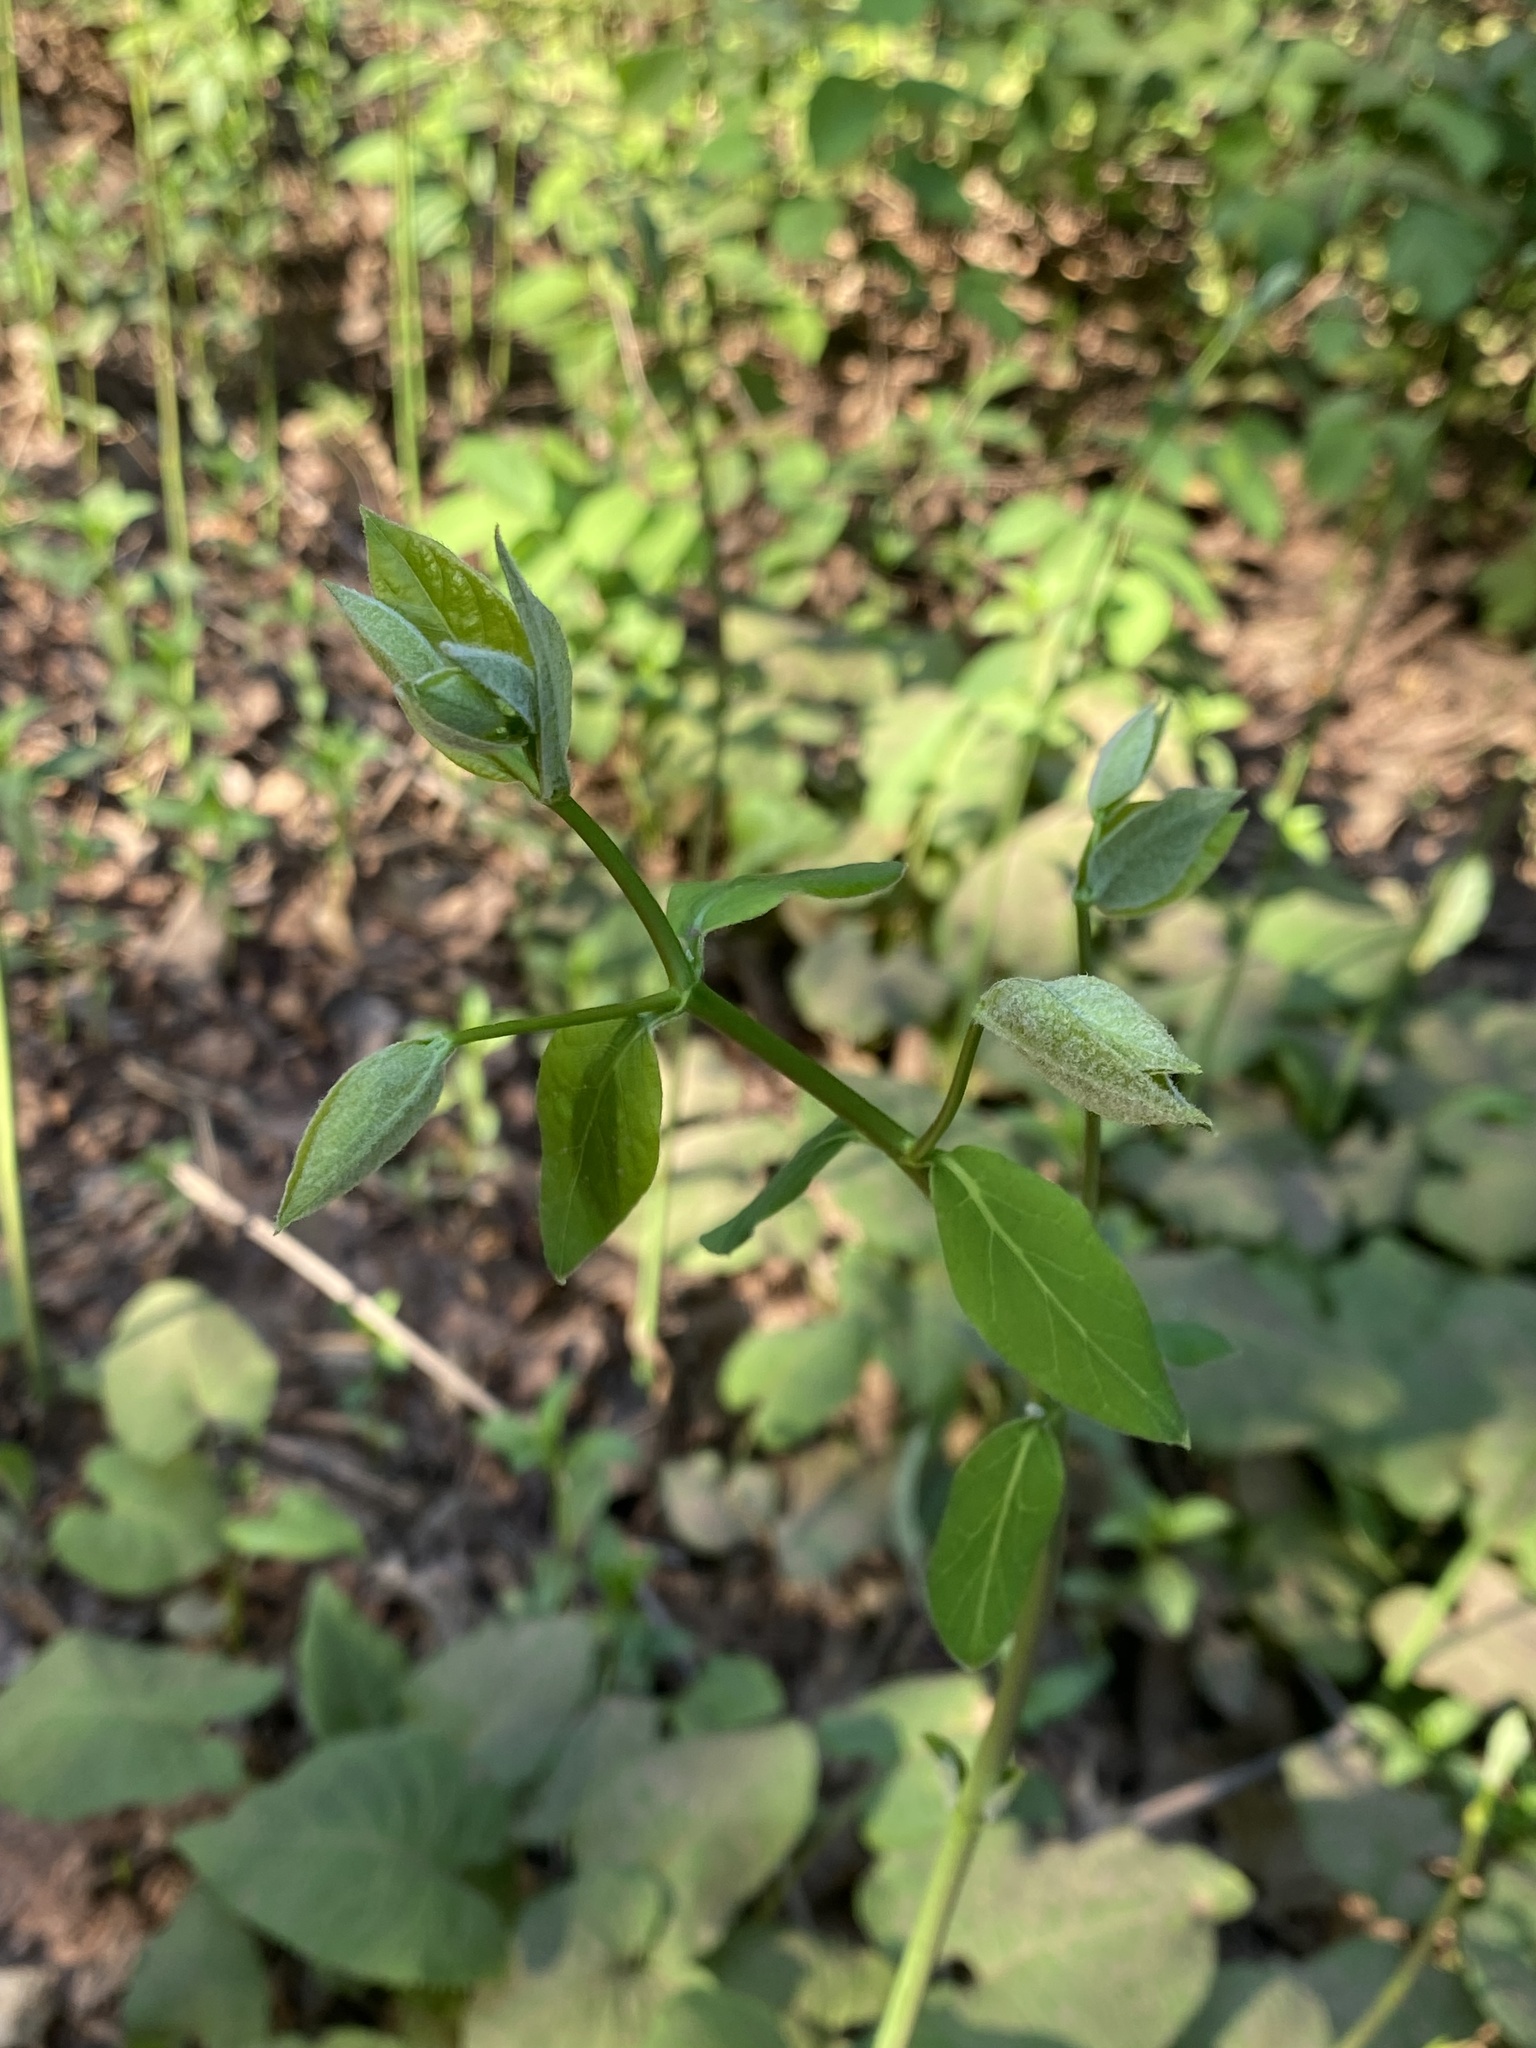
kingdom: Plantae
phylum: Tracheophyta
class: Magnoliopsida
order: Gentianales
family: Apocynaceae
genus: Apocynum
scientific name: Apocynum androsaemifolium
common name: Spreading dogbane
